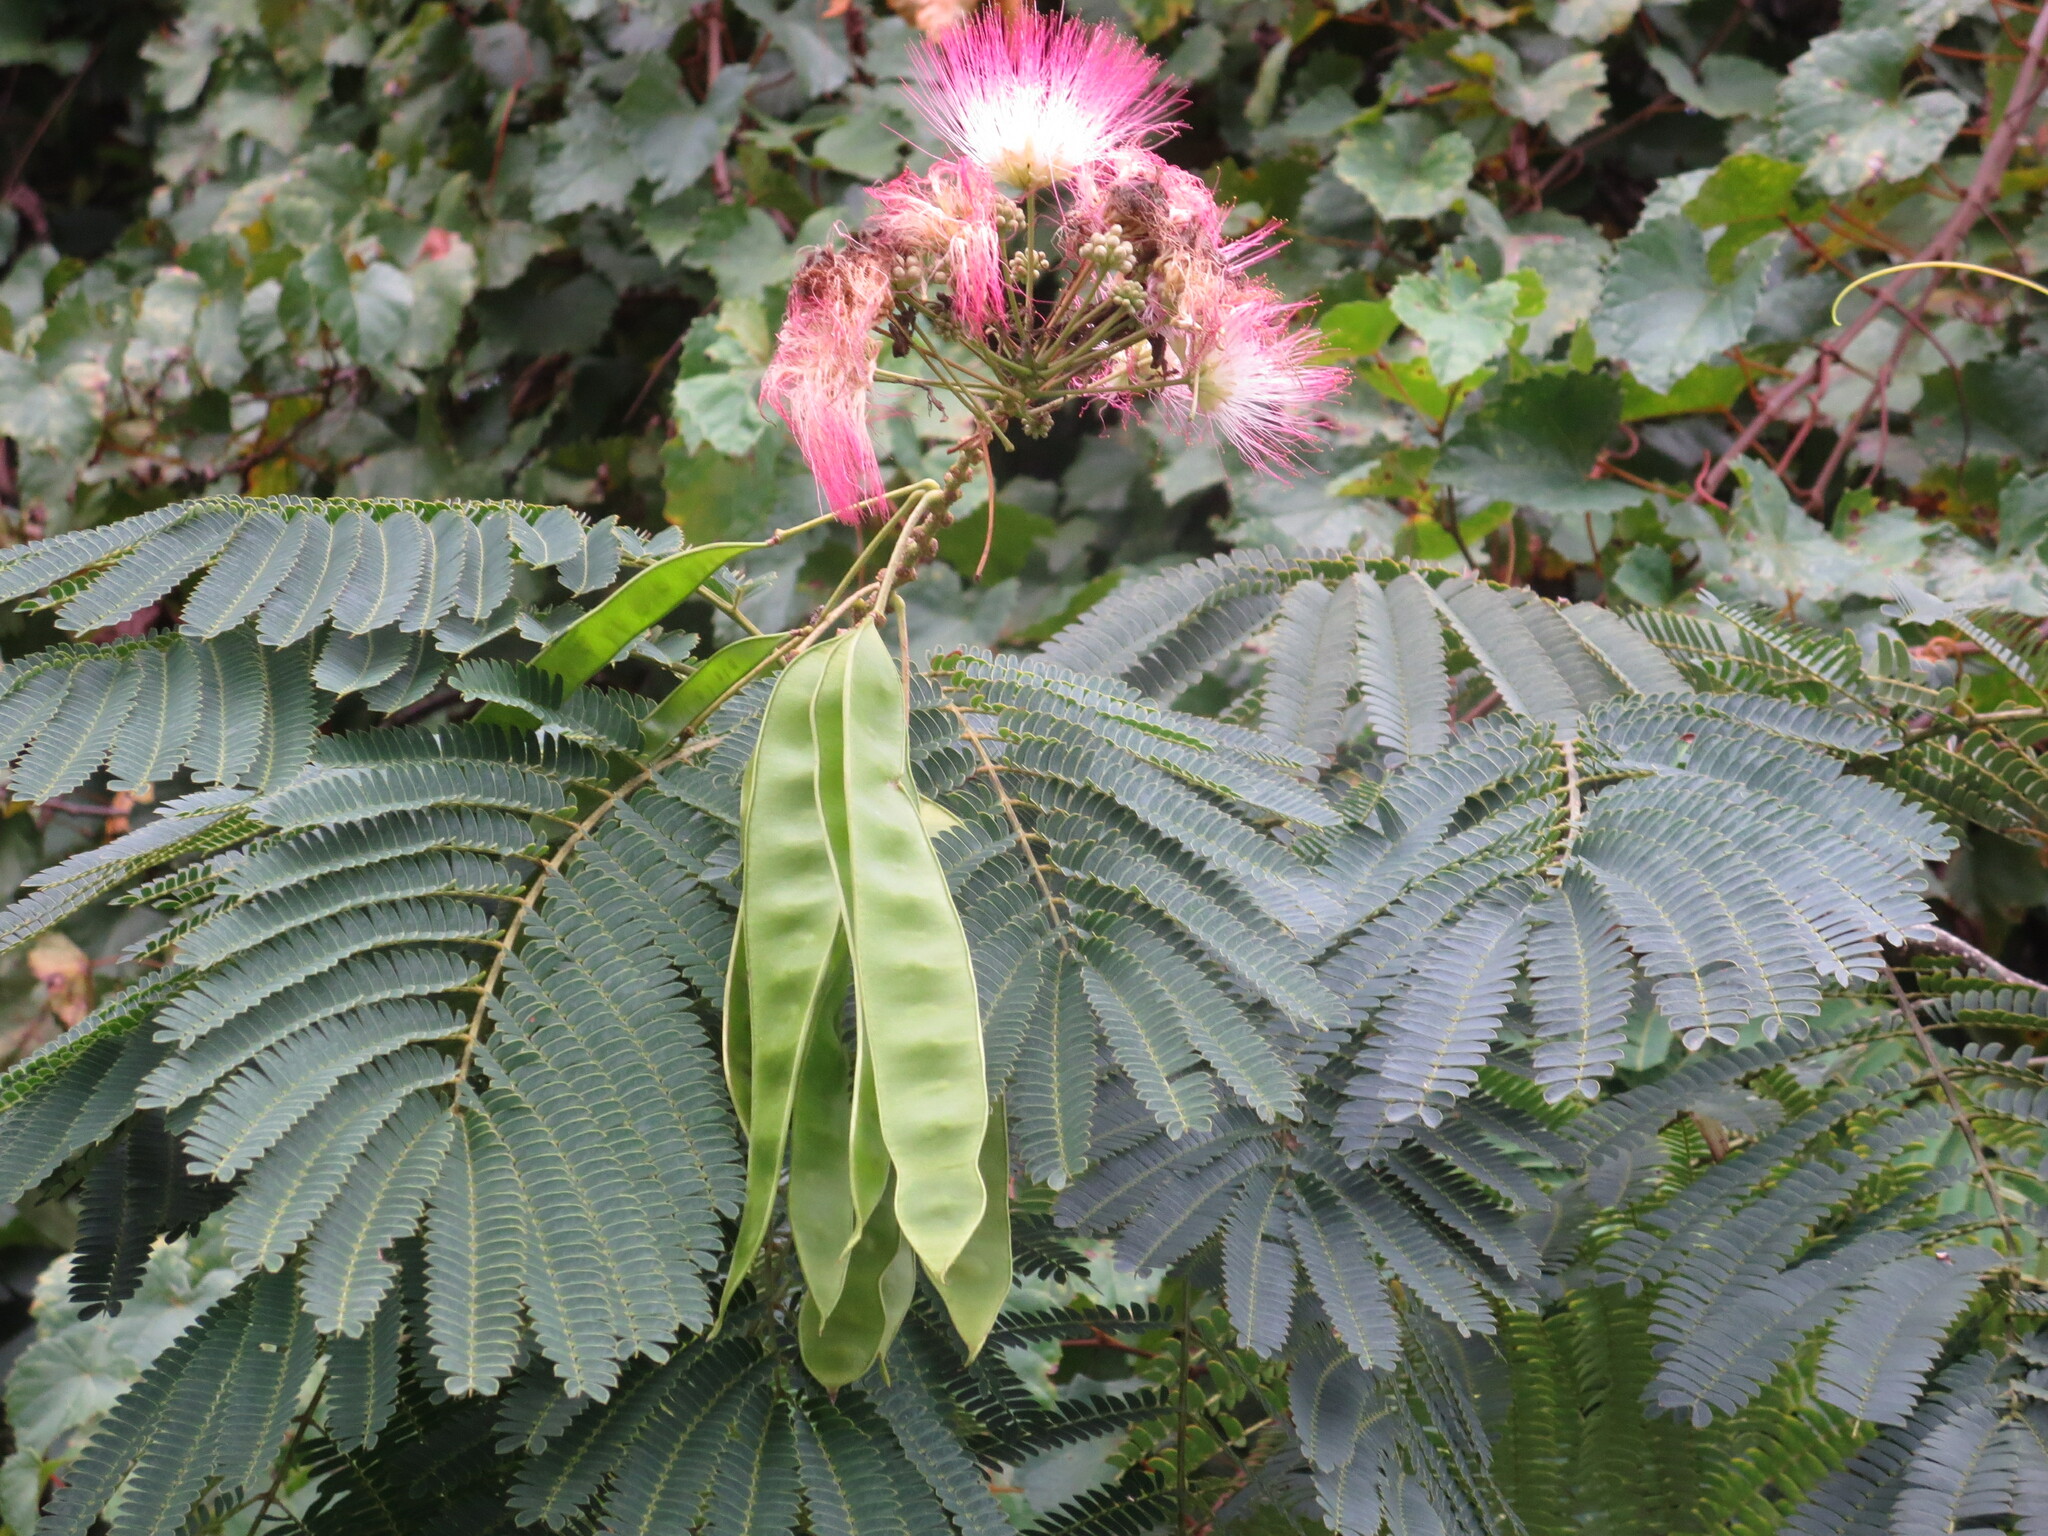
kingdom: Plantae
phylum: Tracheophyta
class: Magnoliopsida
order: Fabales
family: Fabaceae
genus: Albizia
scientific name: Albizia julibrissin
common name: Silktree
